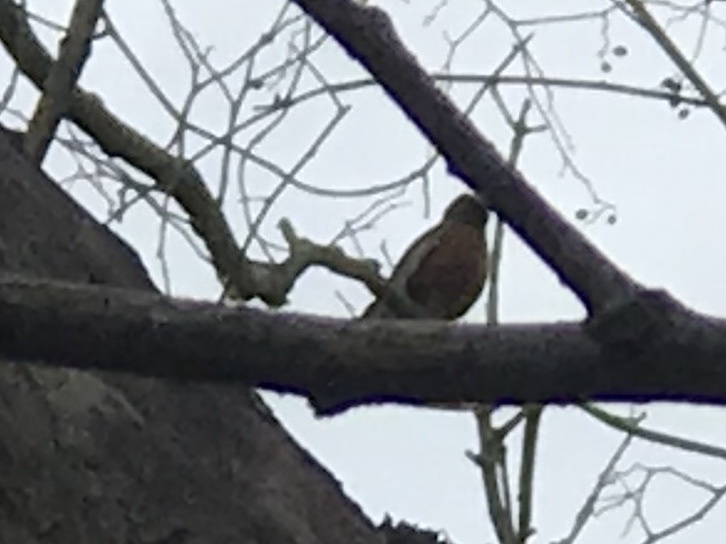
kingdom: Animalia
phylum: Chordata
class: Aves
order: Passeriformes
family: Turdidae
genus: Turdus
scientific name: Turdus migratorius
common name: American robin
